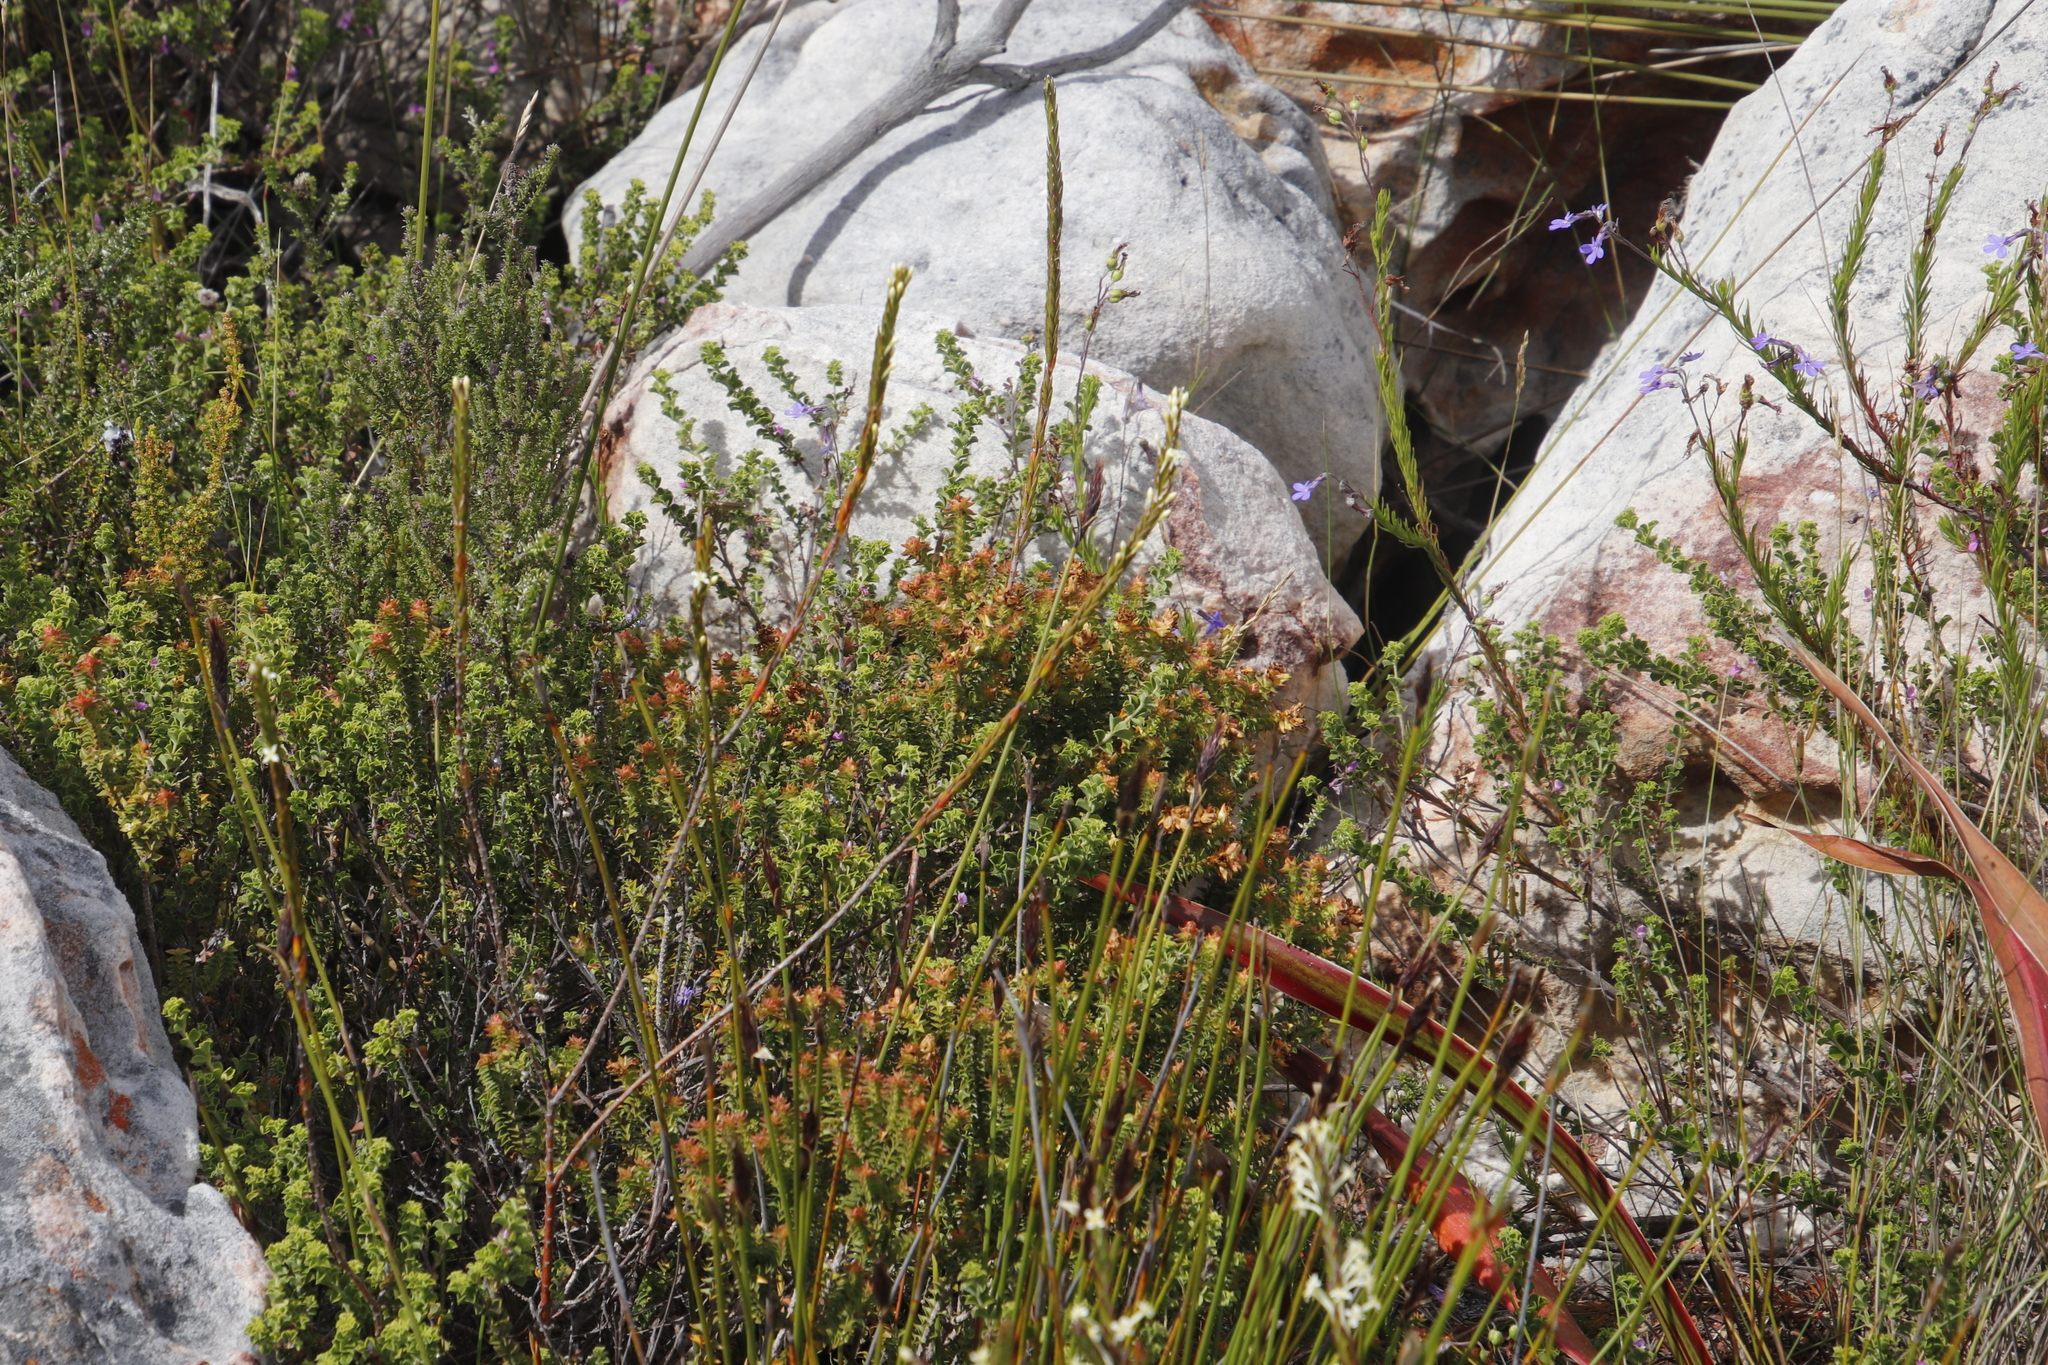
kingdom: Plantae
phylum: Tracheophyta
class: Magnoliopsida
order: Myrtales
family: Penaeaceae
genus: Penaea
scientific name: Penaea mucronata
